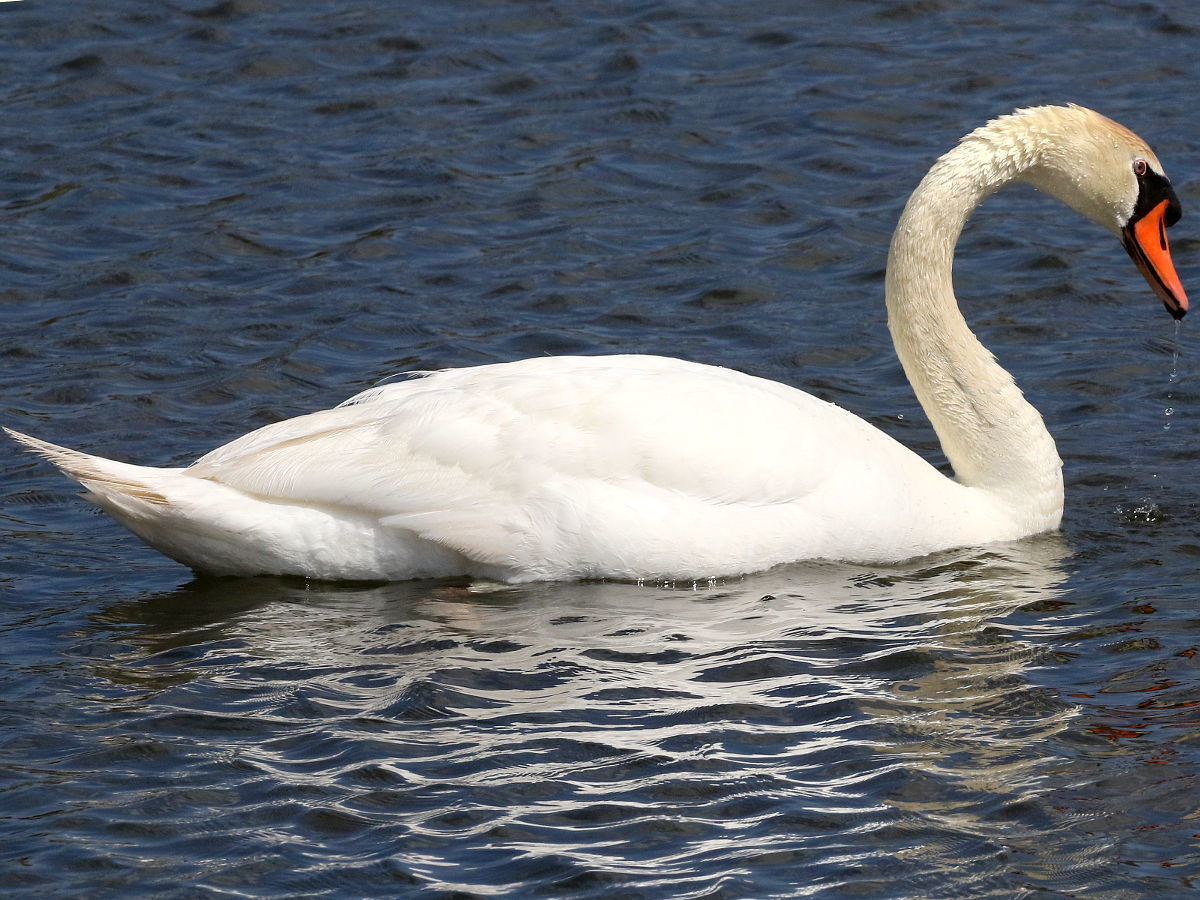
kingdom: Animalia
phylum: Chordata
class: Aves
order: Anseriformes
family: Anatidae
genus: Cygnus
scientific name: Cygnus olor
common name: Mute swan
